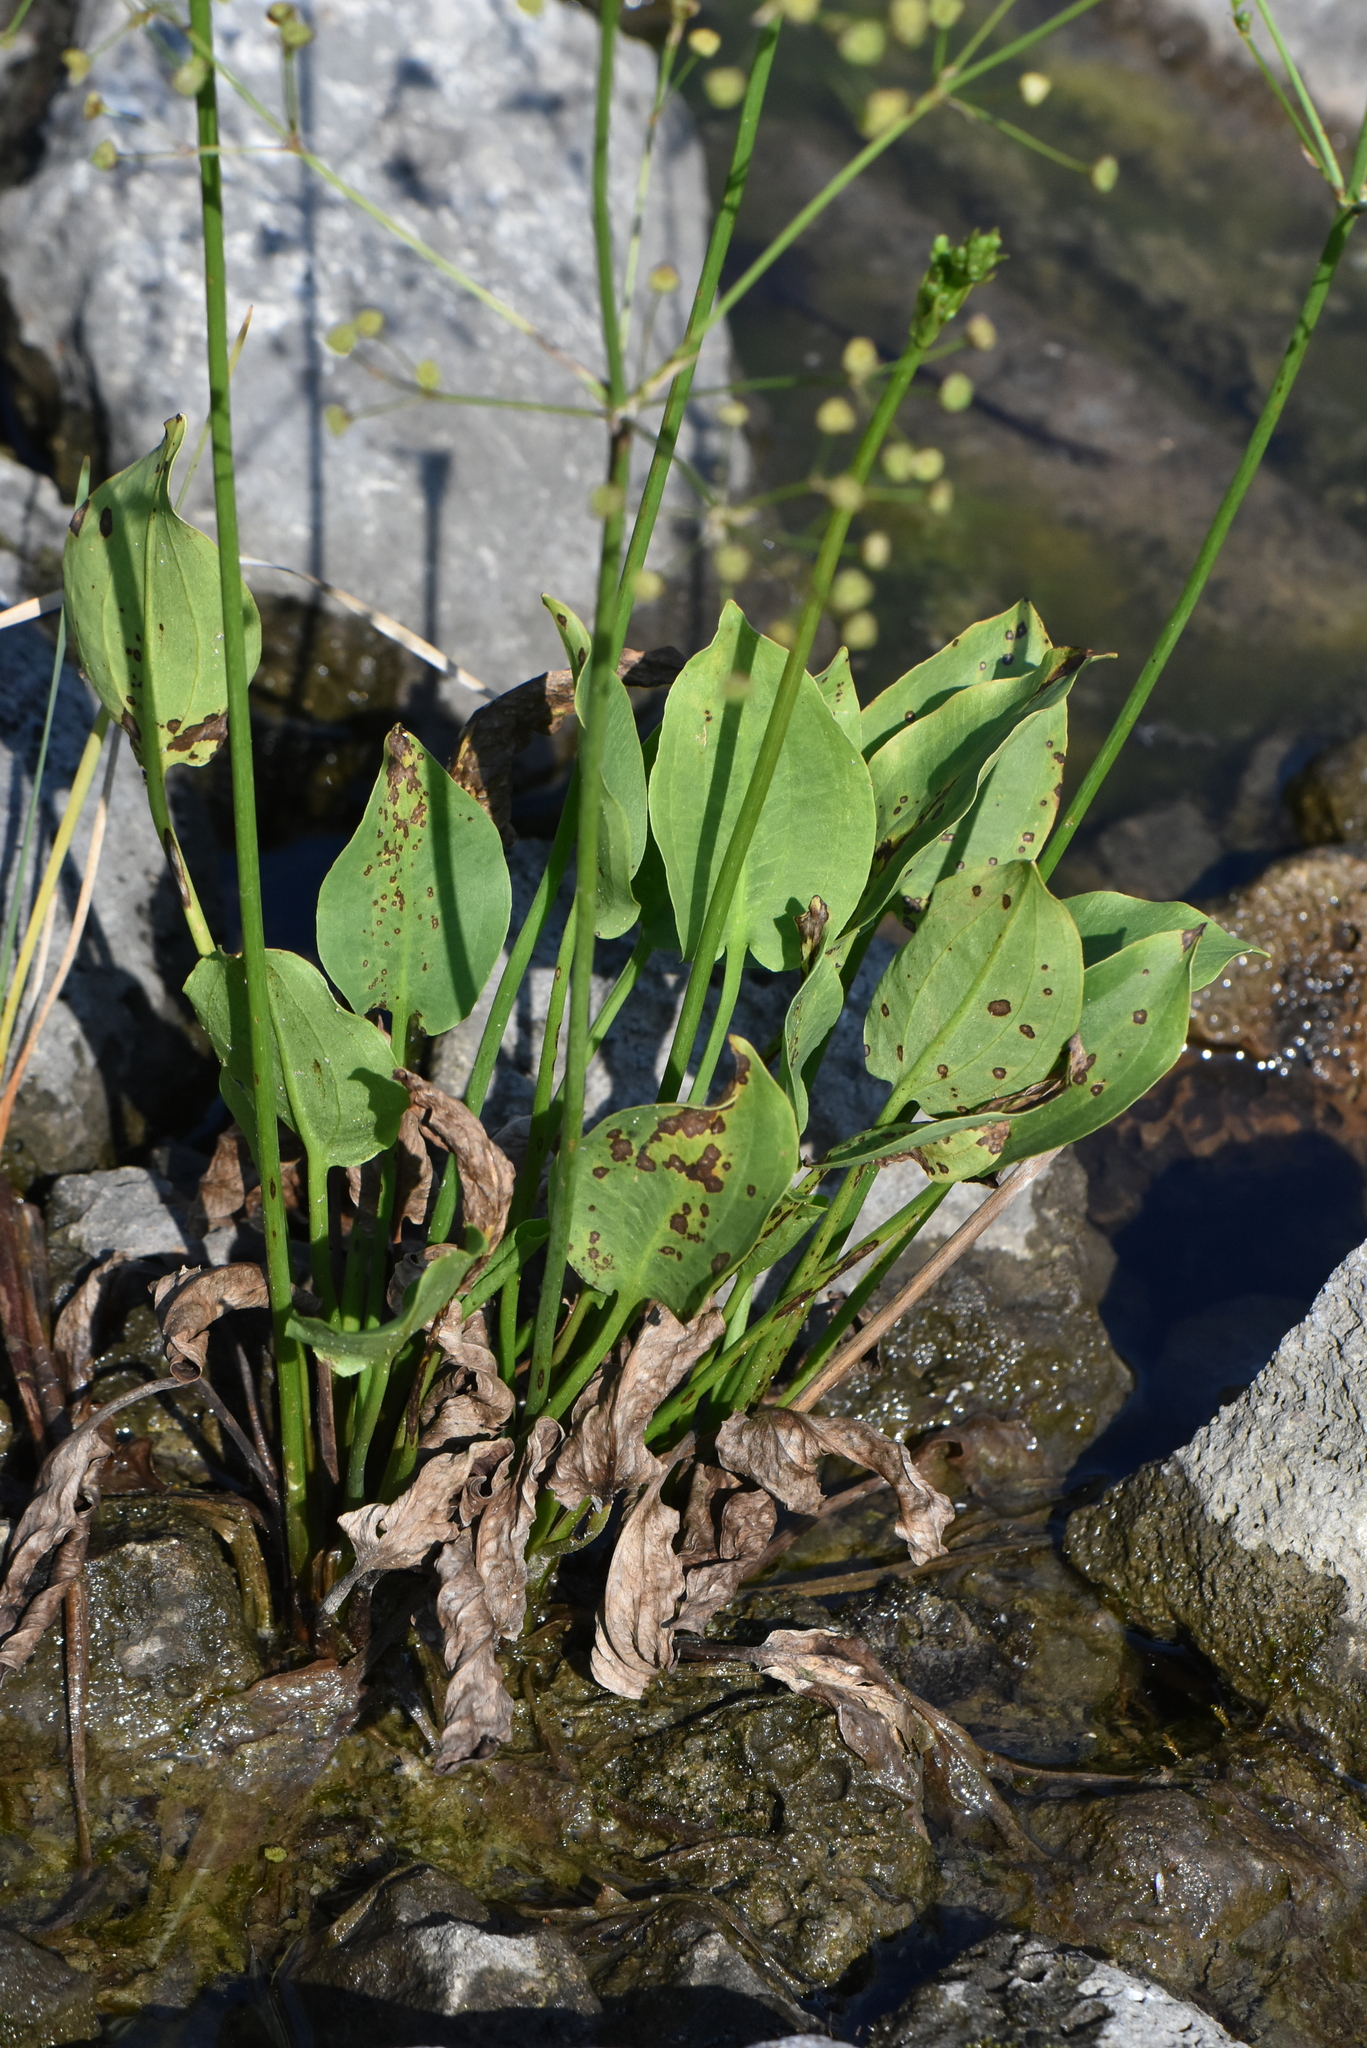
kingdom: Plantae
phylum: Tracheophyta
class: Liliopsida
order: Alismatales
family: Alismataceae
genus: Alisma
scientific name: Alisma plantago-aquatica
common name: Water-plantain
